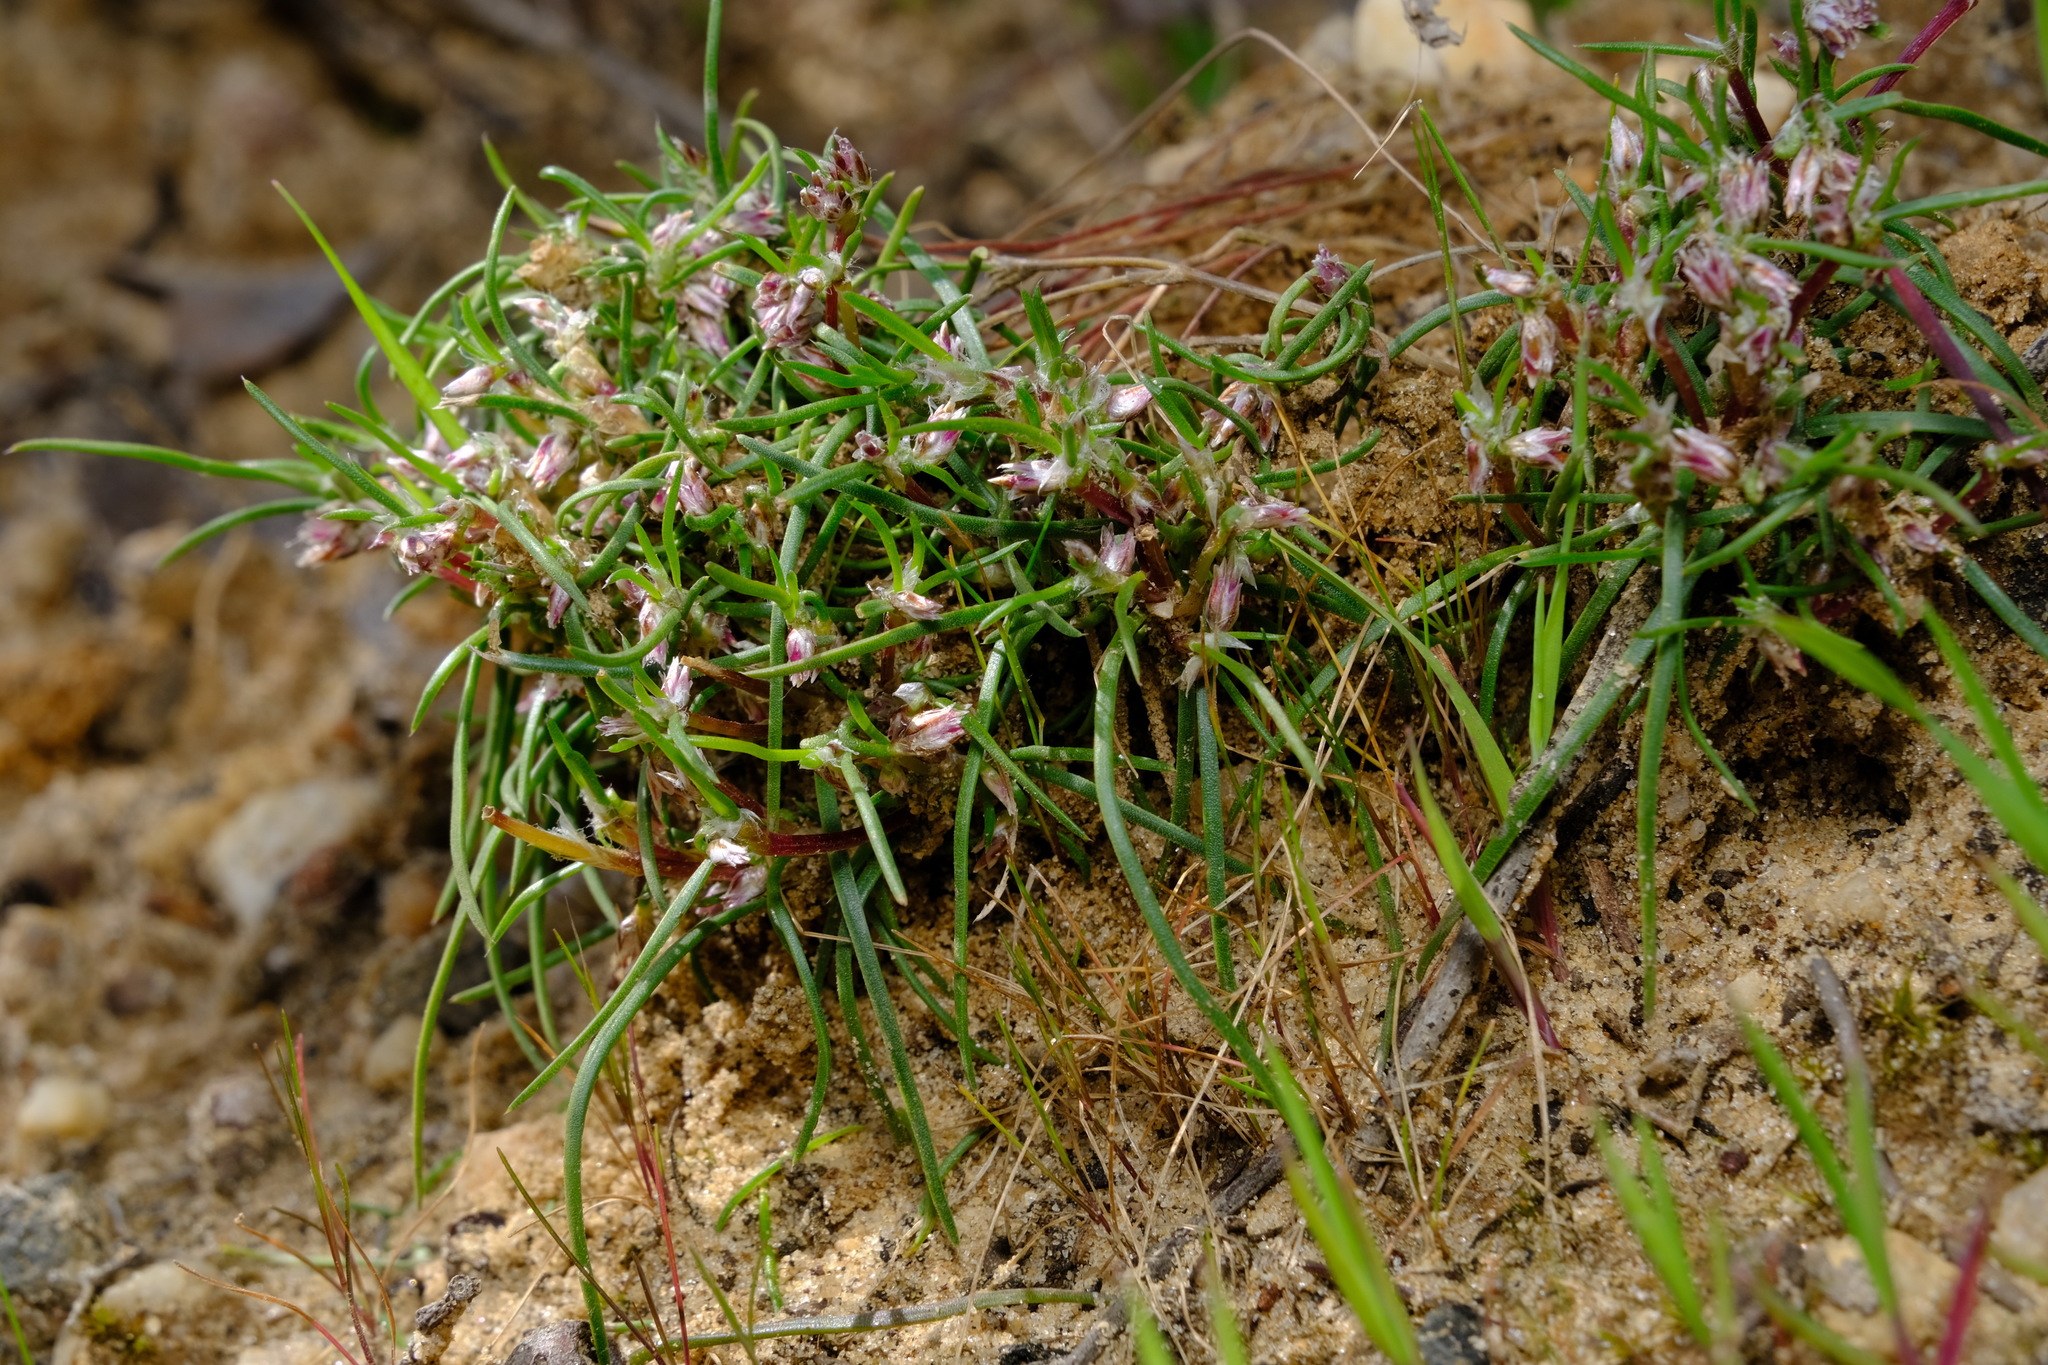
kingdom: Plantae
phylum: Tracheophyta
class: Liliopsida
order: Asparagales
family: Asparagaceae
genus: Laxmannia
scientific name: Laxmannia orientalis
